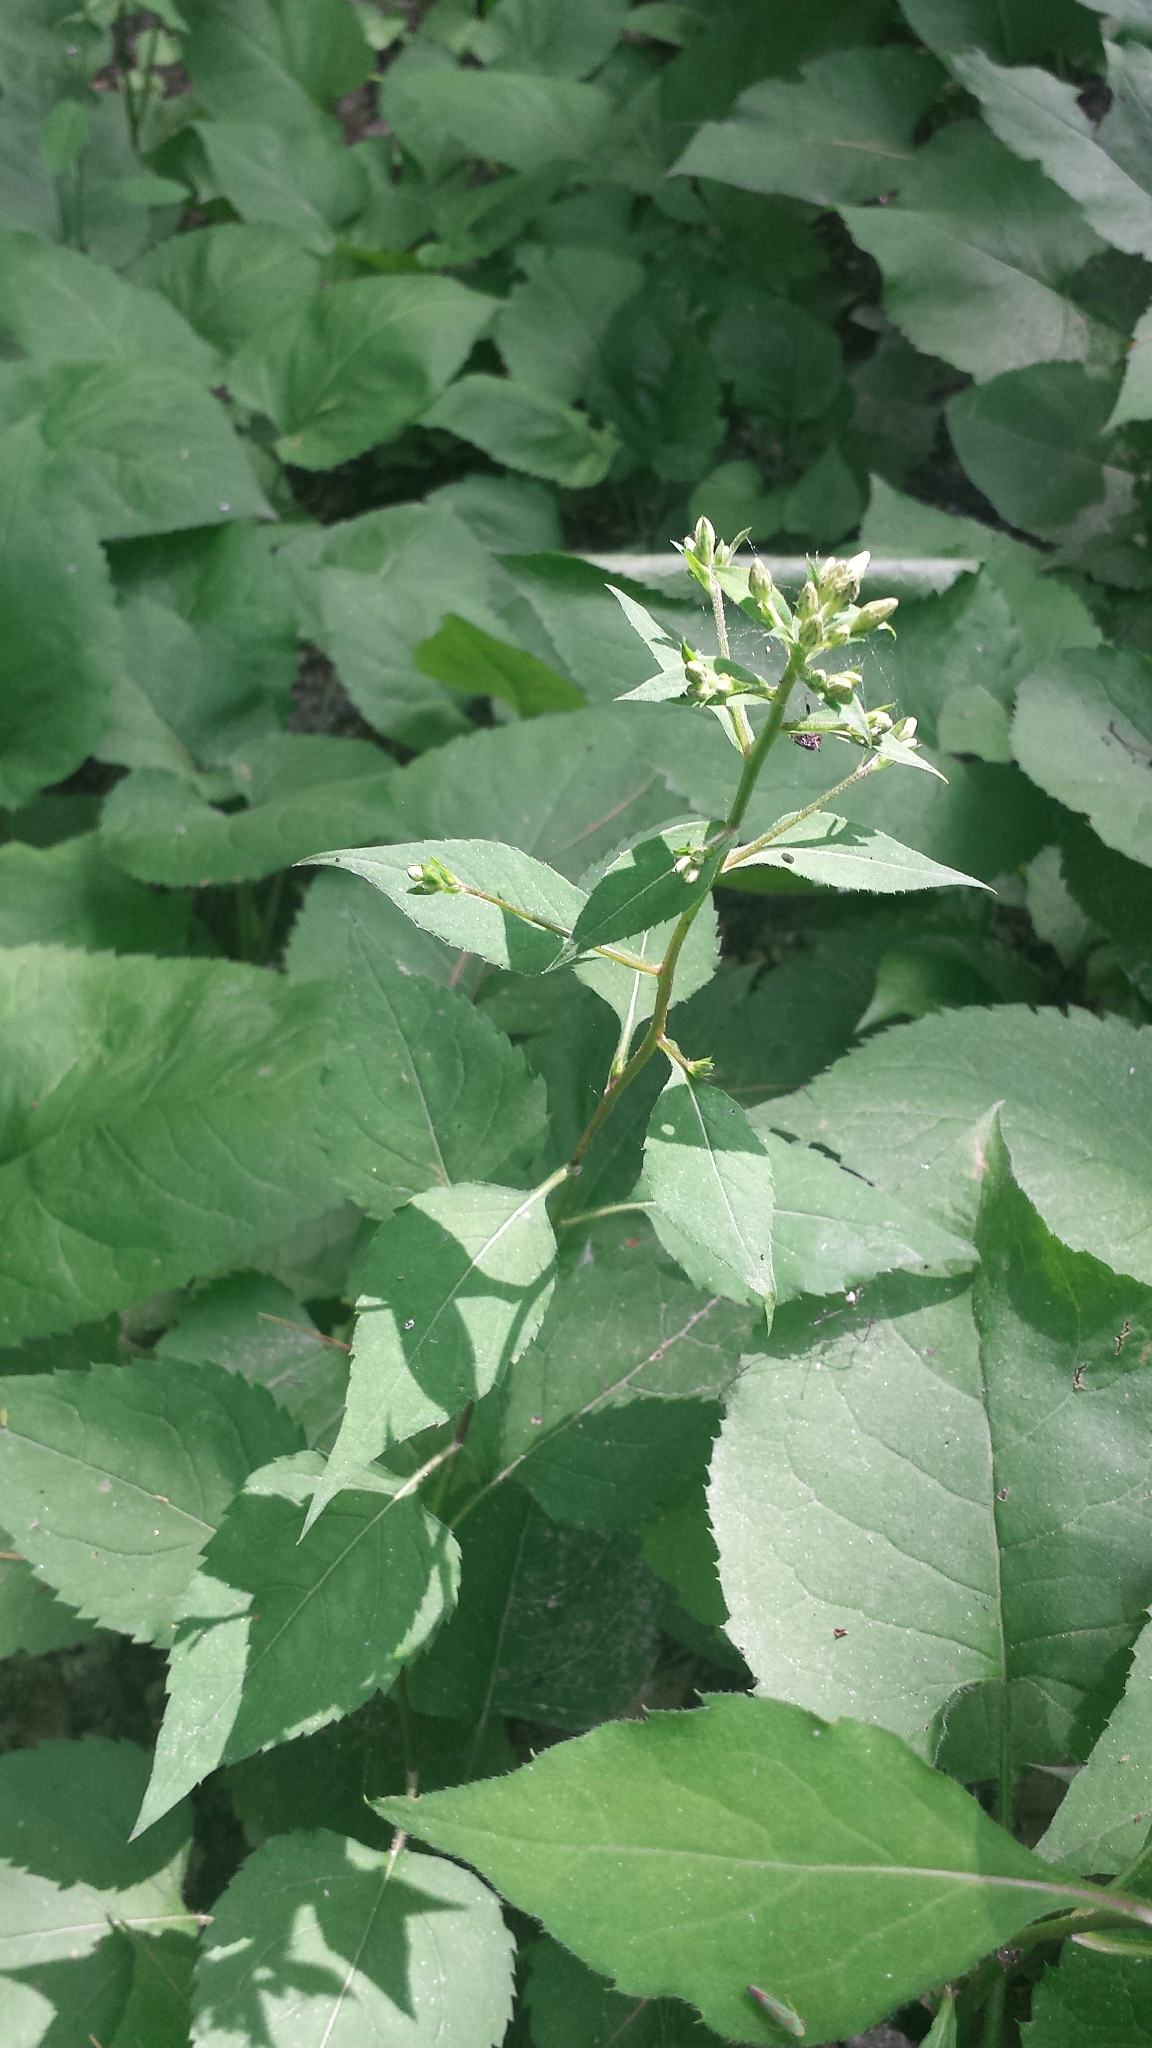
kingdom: Plantae
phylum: Tracheophyta
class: Magnoliopsida
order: Asterales
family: Asteraceae
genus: Eurybia
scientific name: Eurybia macrophylla
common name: Big-leaved aster
